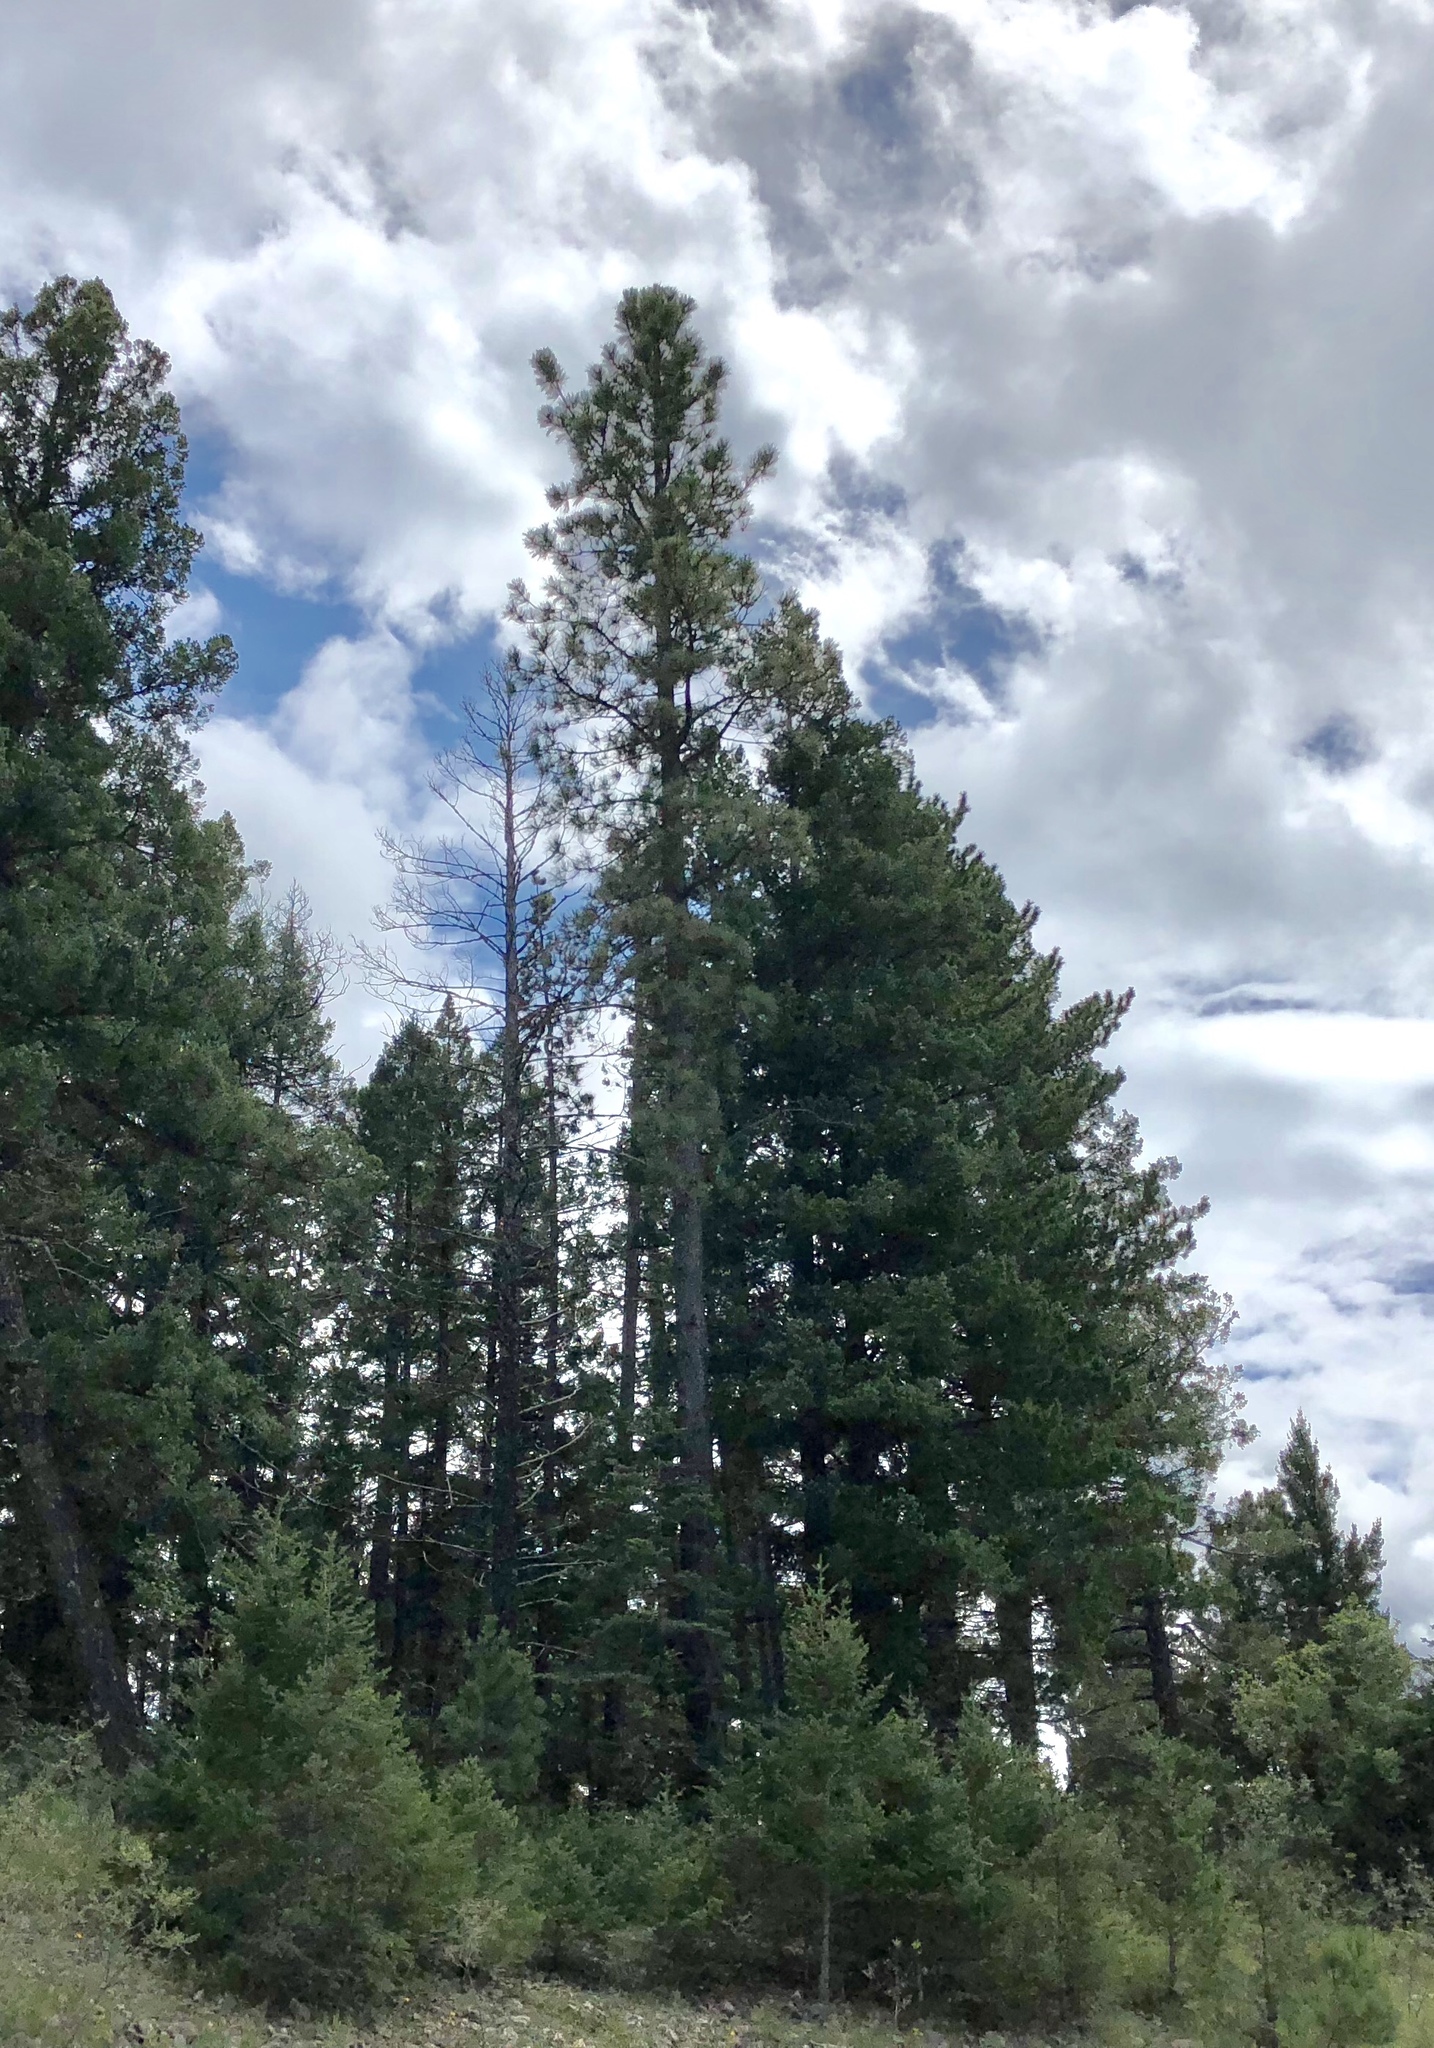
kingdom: Plantae
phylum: Tracheophyta
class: Pinopsida
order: Pinales
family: Pinaceae
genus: Pinus
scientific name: Pinus ponderosa
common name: Western yellow-pine
